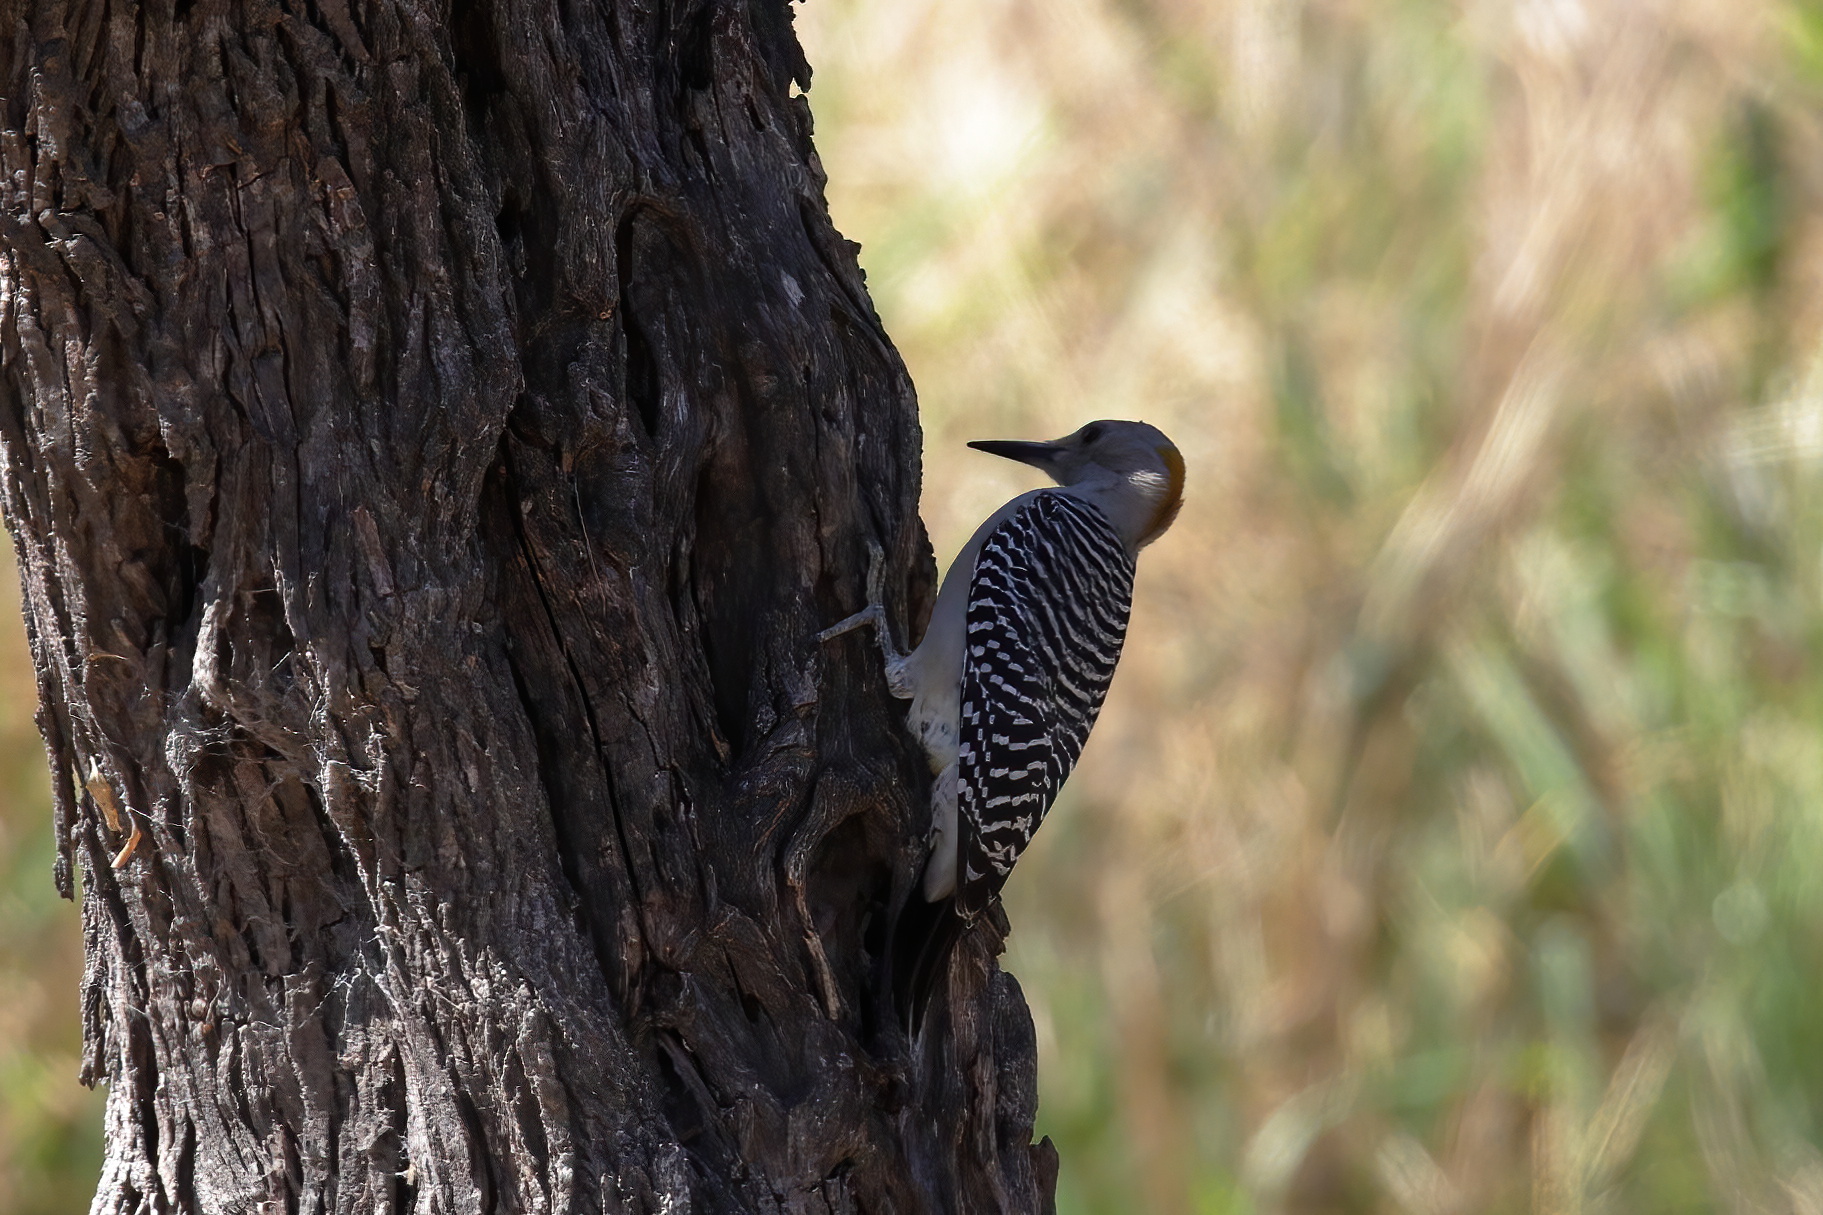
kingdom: Animalia
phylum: Chordata
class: Aves
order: Piciformes
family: Picidae
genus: Melanerpes
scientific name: Melanerpes aurifrons
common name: Golden-fronted woodpecker
